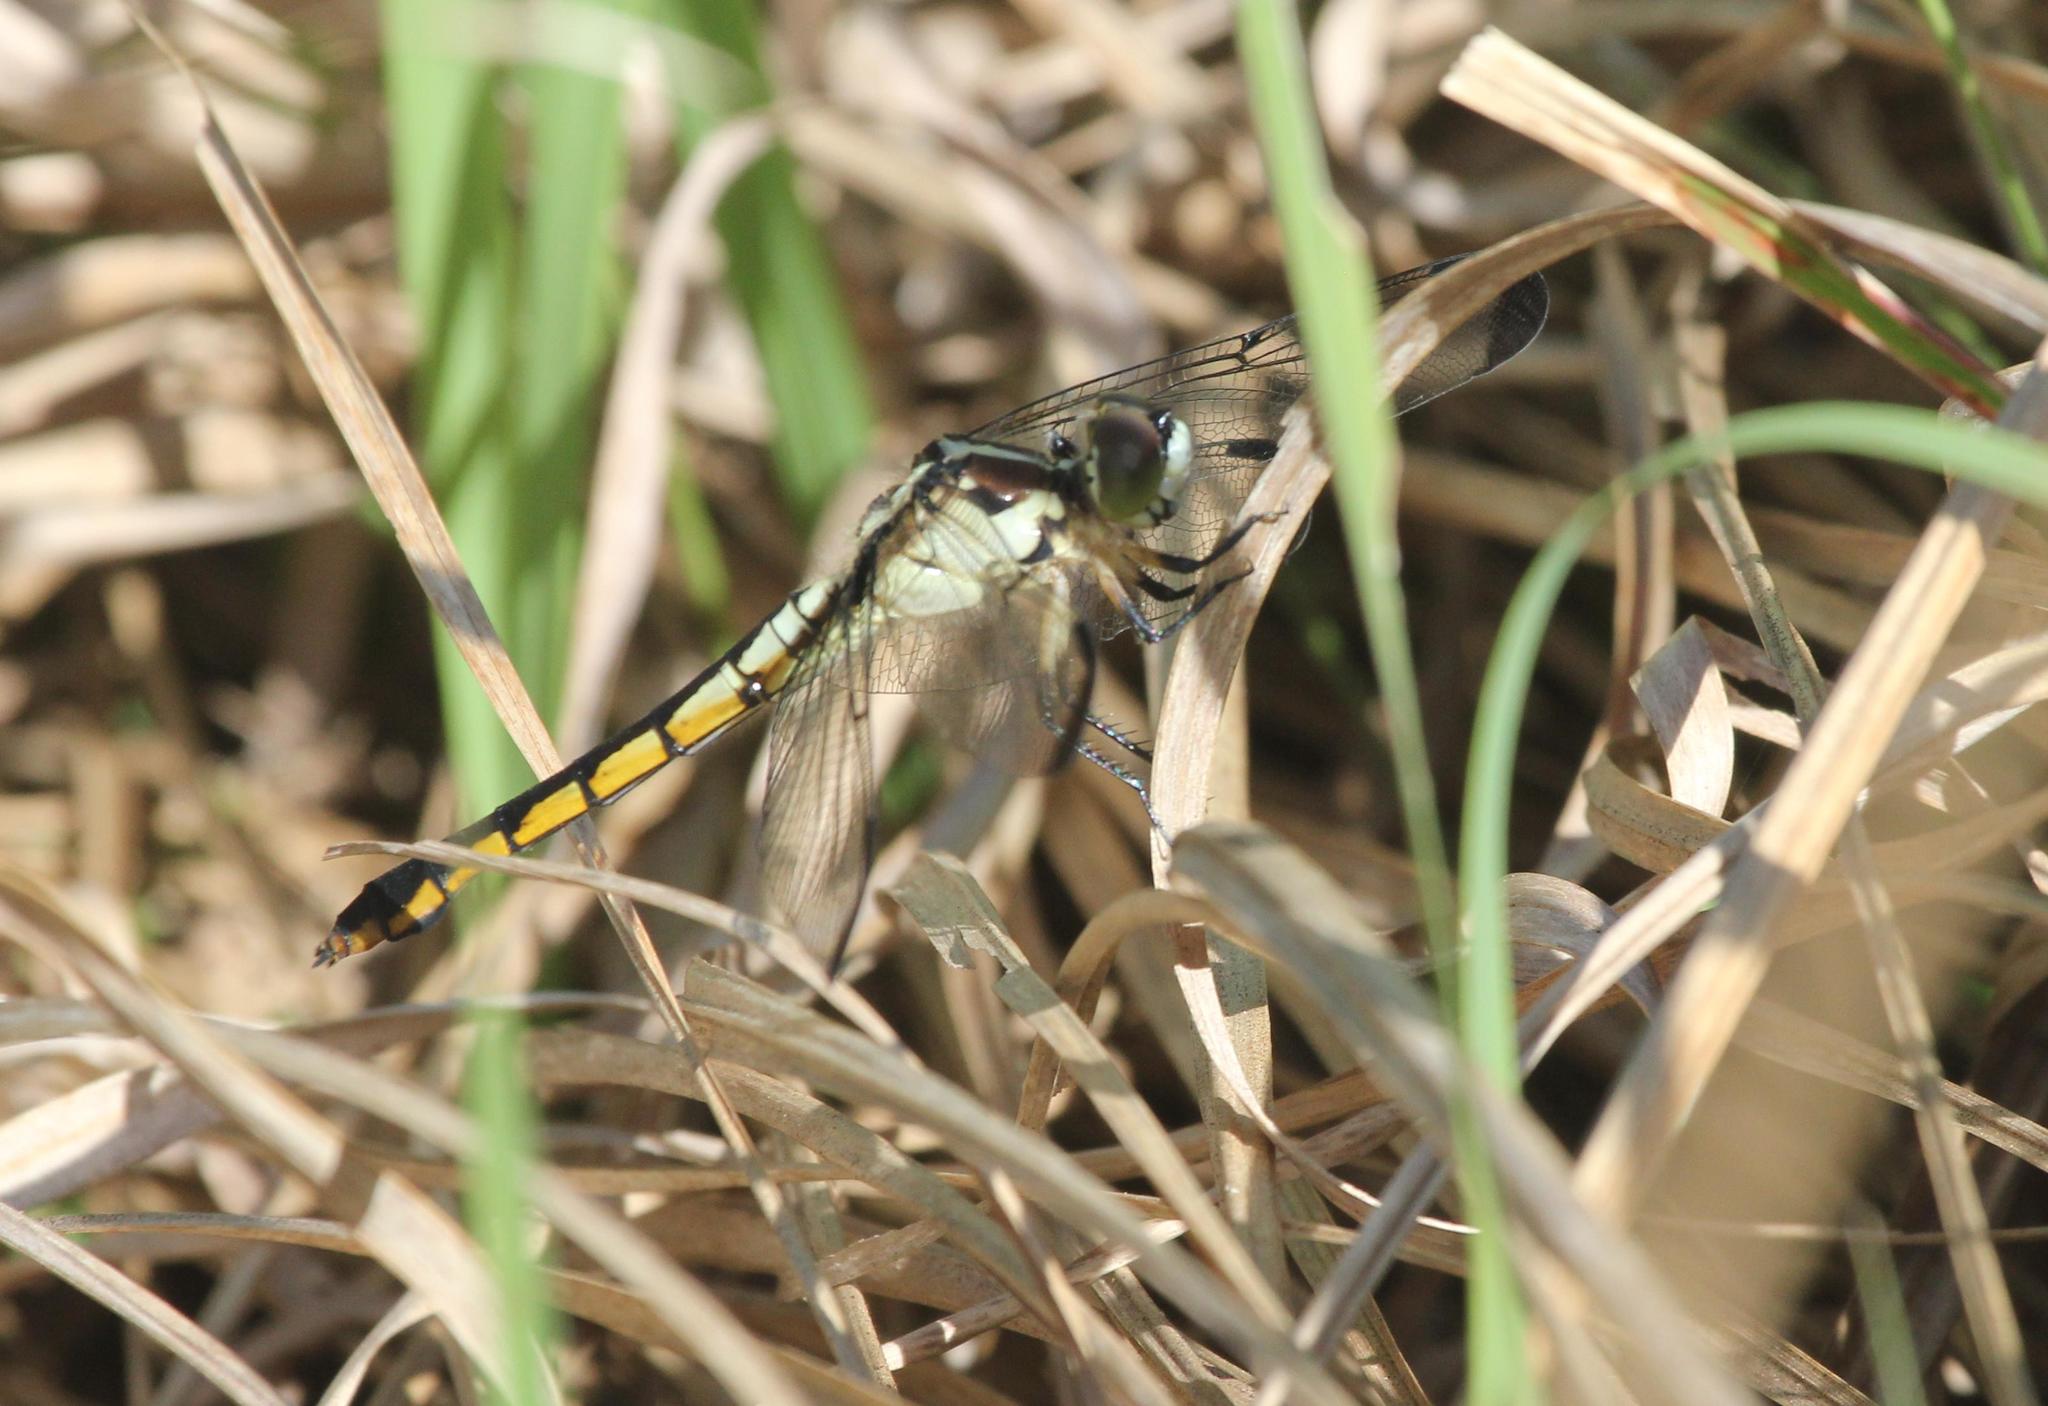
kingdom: Animalia
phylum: Arthropoda
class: Insecta
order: Odonata
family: Libellulidae
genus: Libellula
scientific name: Libellula vibrans
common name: Great blue skimmer
